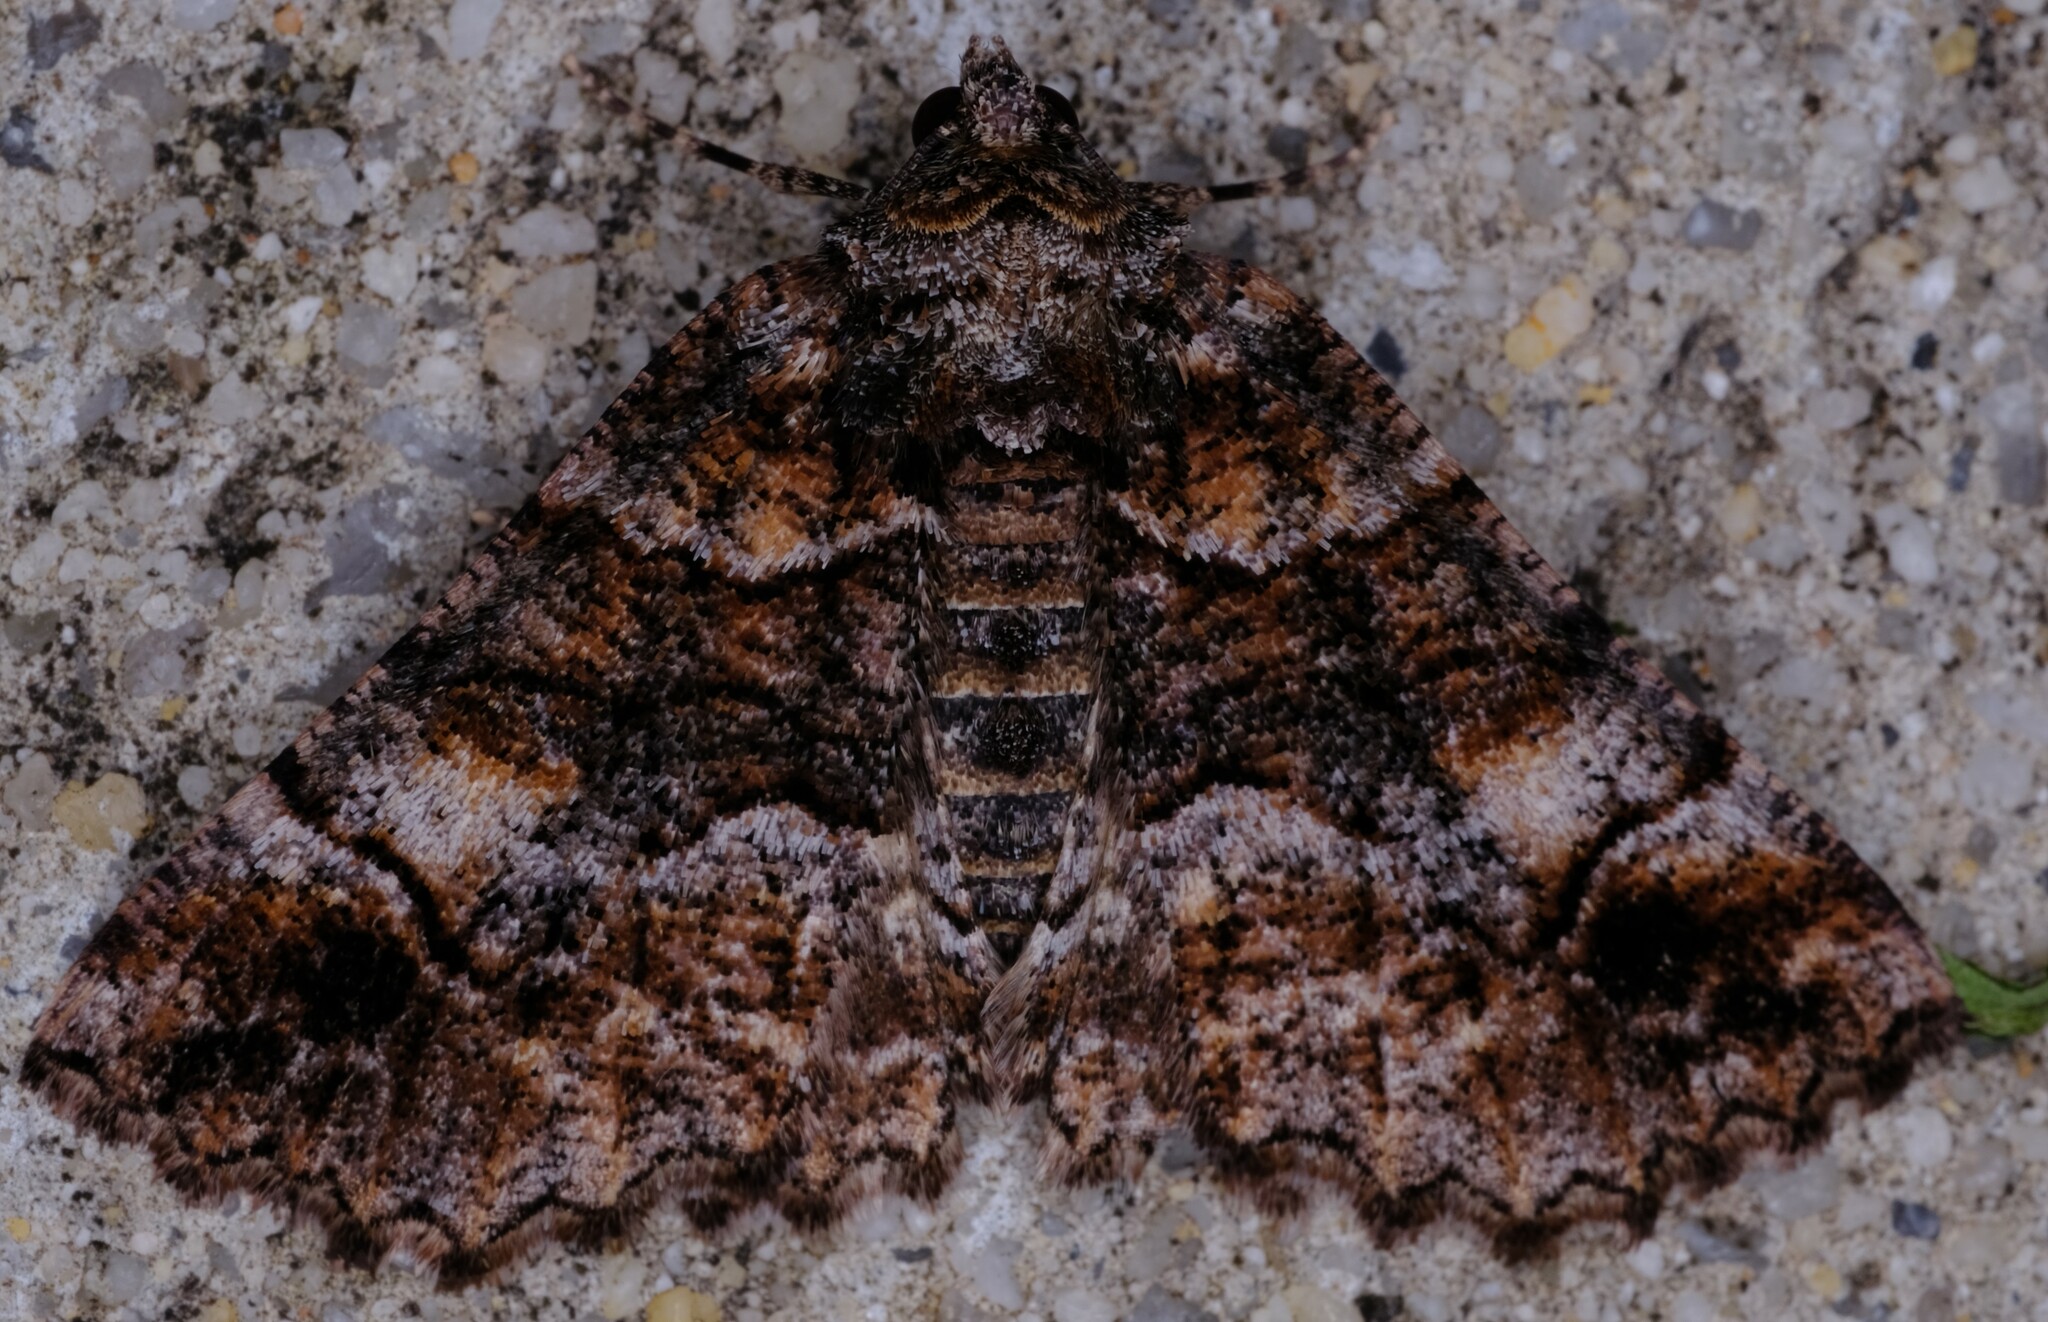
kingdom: Animalia
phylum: Arthropoda
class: Insecta
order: Lepidoptera
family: Geometridae
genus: Gastrina
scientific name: Gastrina cristaria
